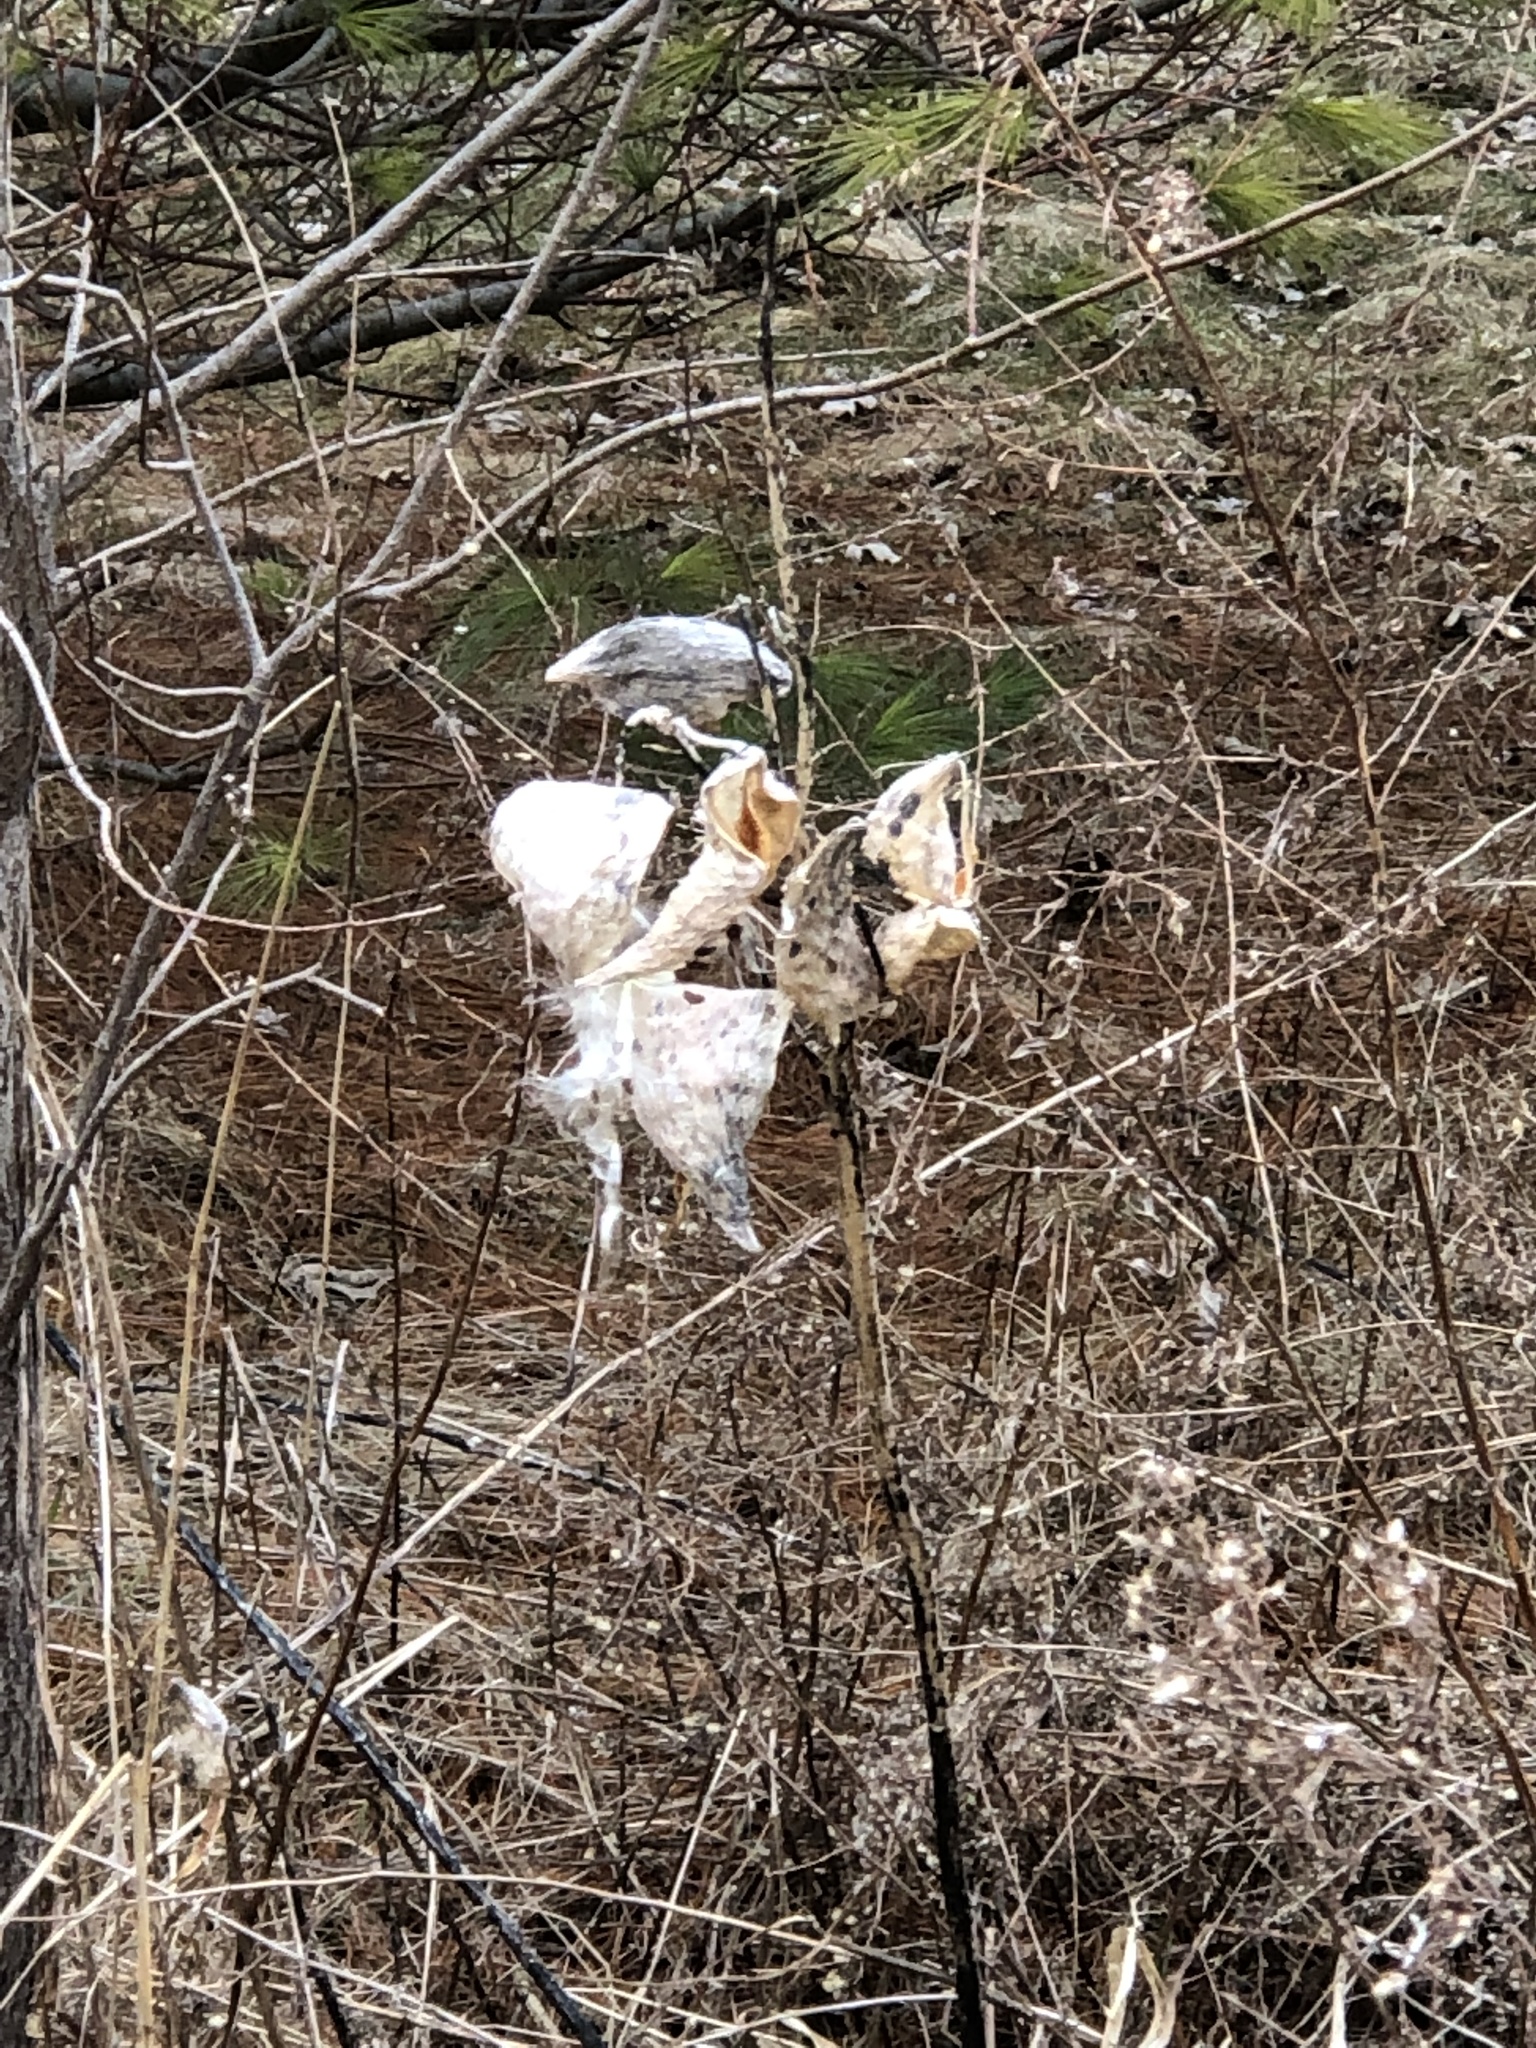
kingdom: Plantae
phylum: Tracheophyta
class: Magnoliopsida
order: Gentianales
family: Apocynaceae
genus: Asclepias
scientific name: Asclepias syriaca
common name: Common milkweed
